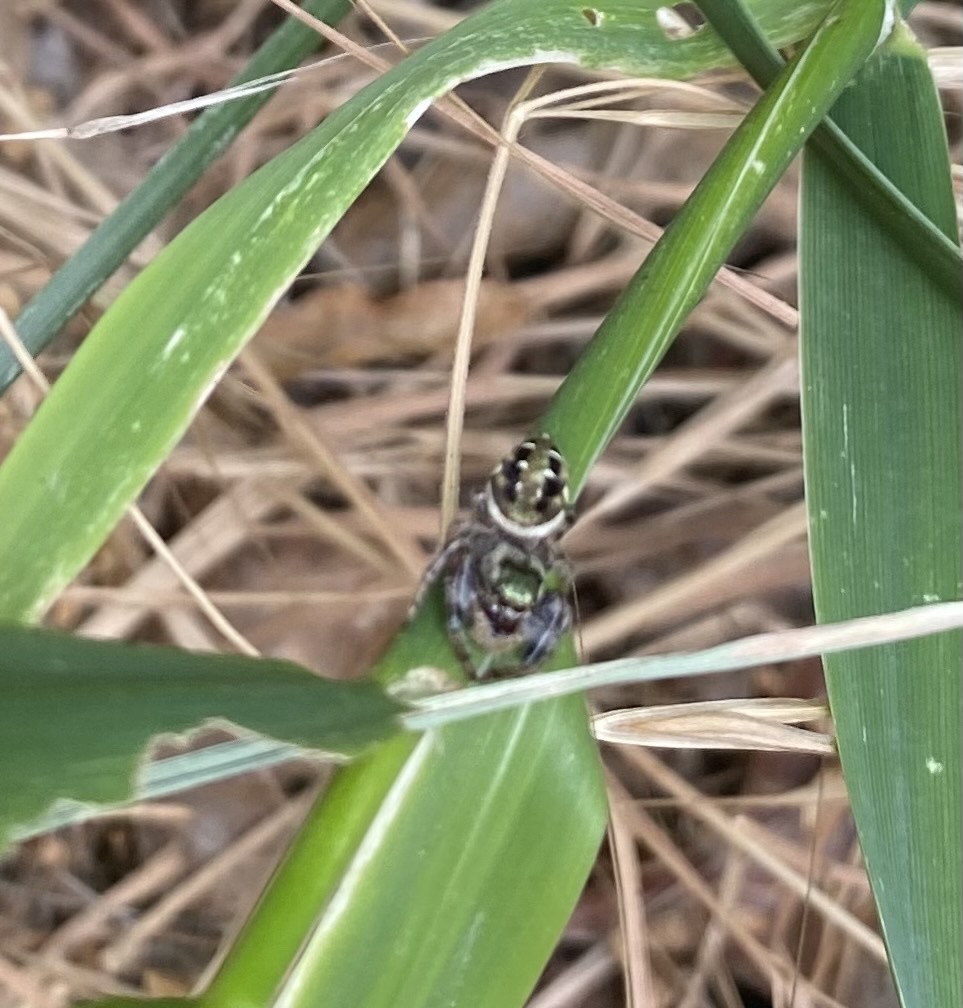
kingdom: Animalia
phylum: Arthropoda
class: Arachnida
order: Araneae
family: Salticidae
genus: Paraphidippus
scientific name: Paraphidippus aurantius
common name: Jumping spiders
